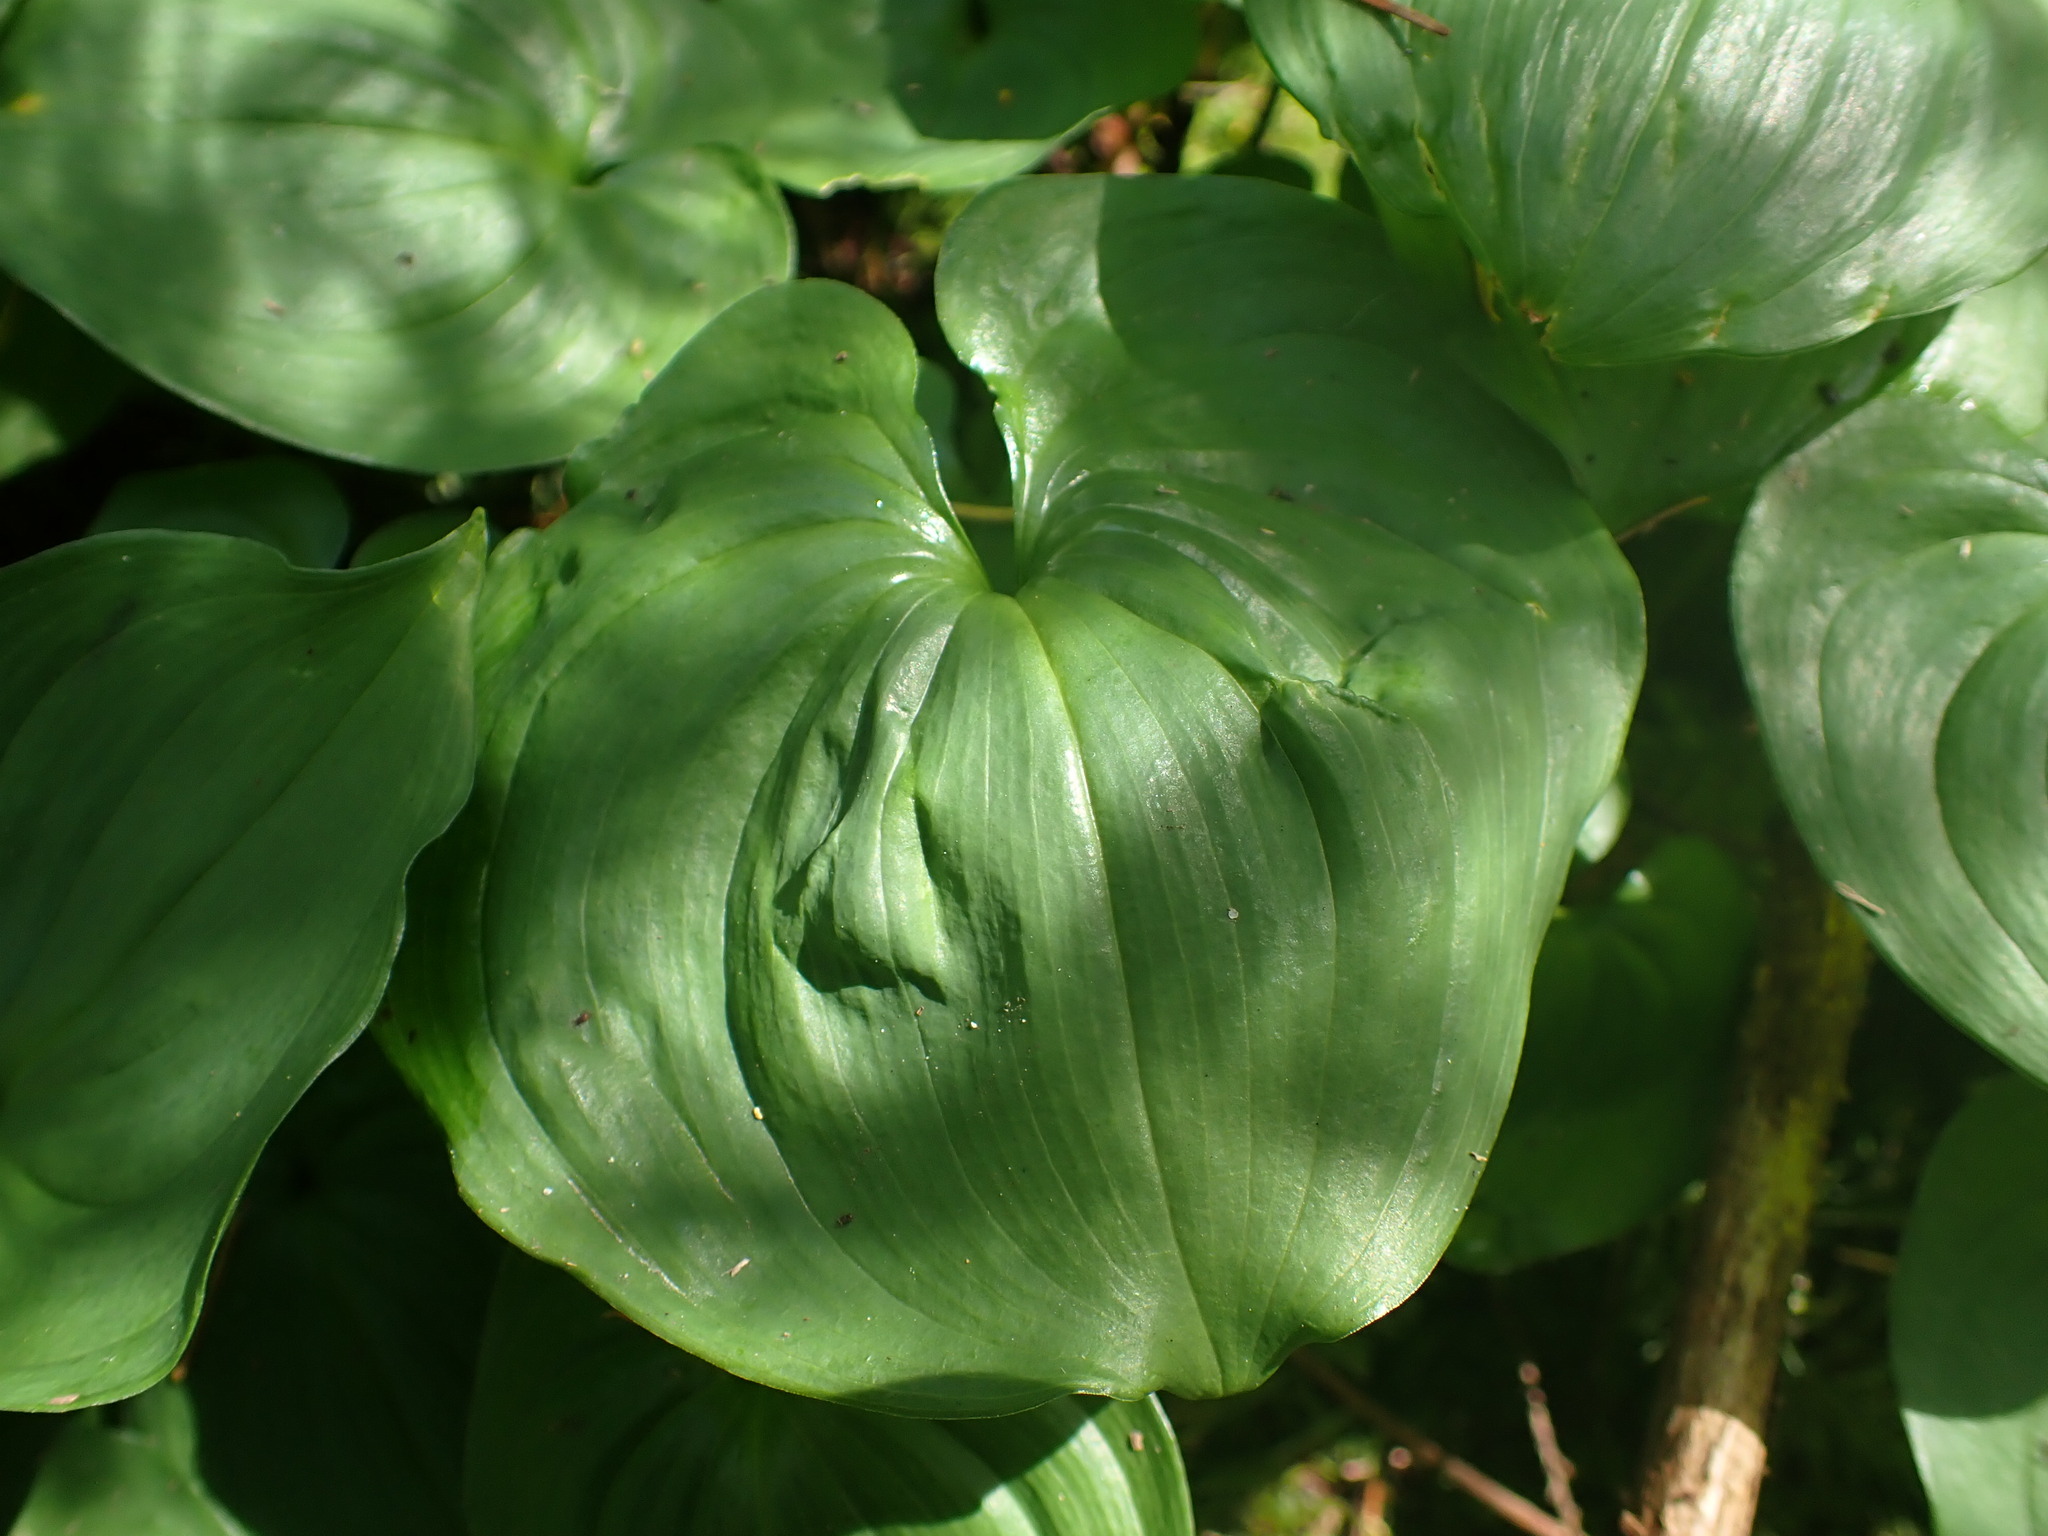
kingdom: Plantae
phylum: Tracheophyta
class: Liliopsida
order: Asparagales
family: Asparagaceae
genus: Maianthemum
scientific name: Maianthemum dilatatum
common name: False lily-of-the-valley
